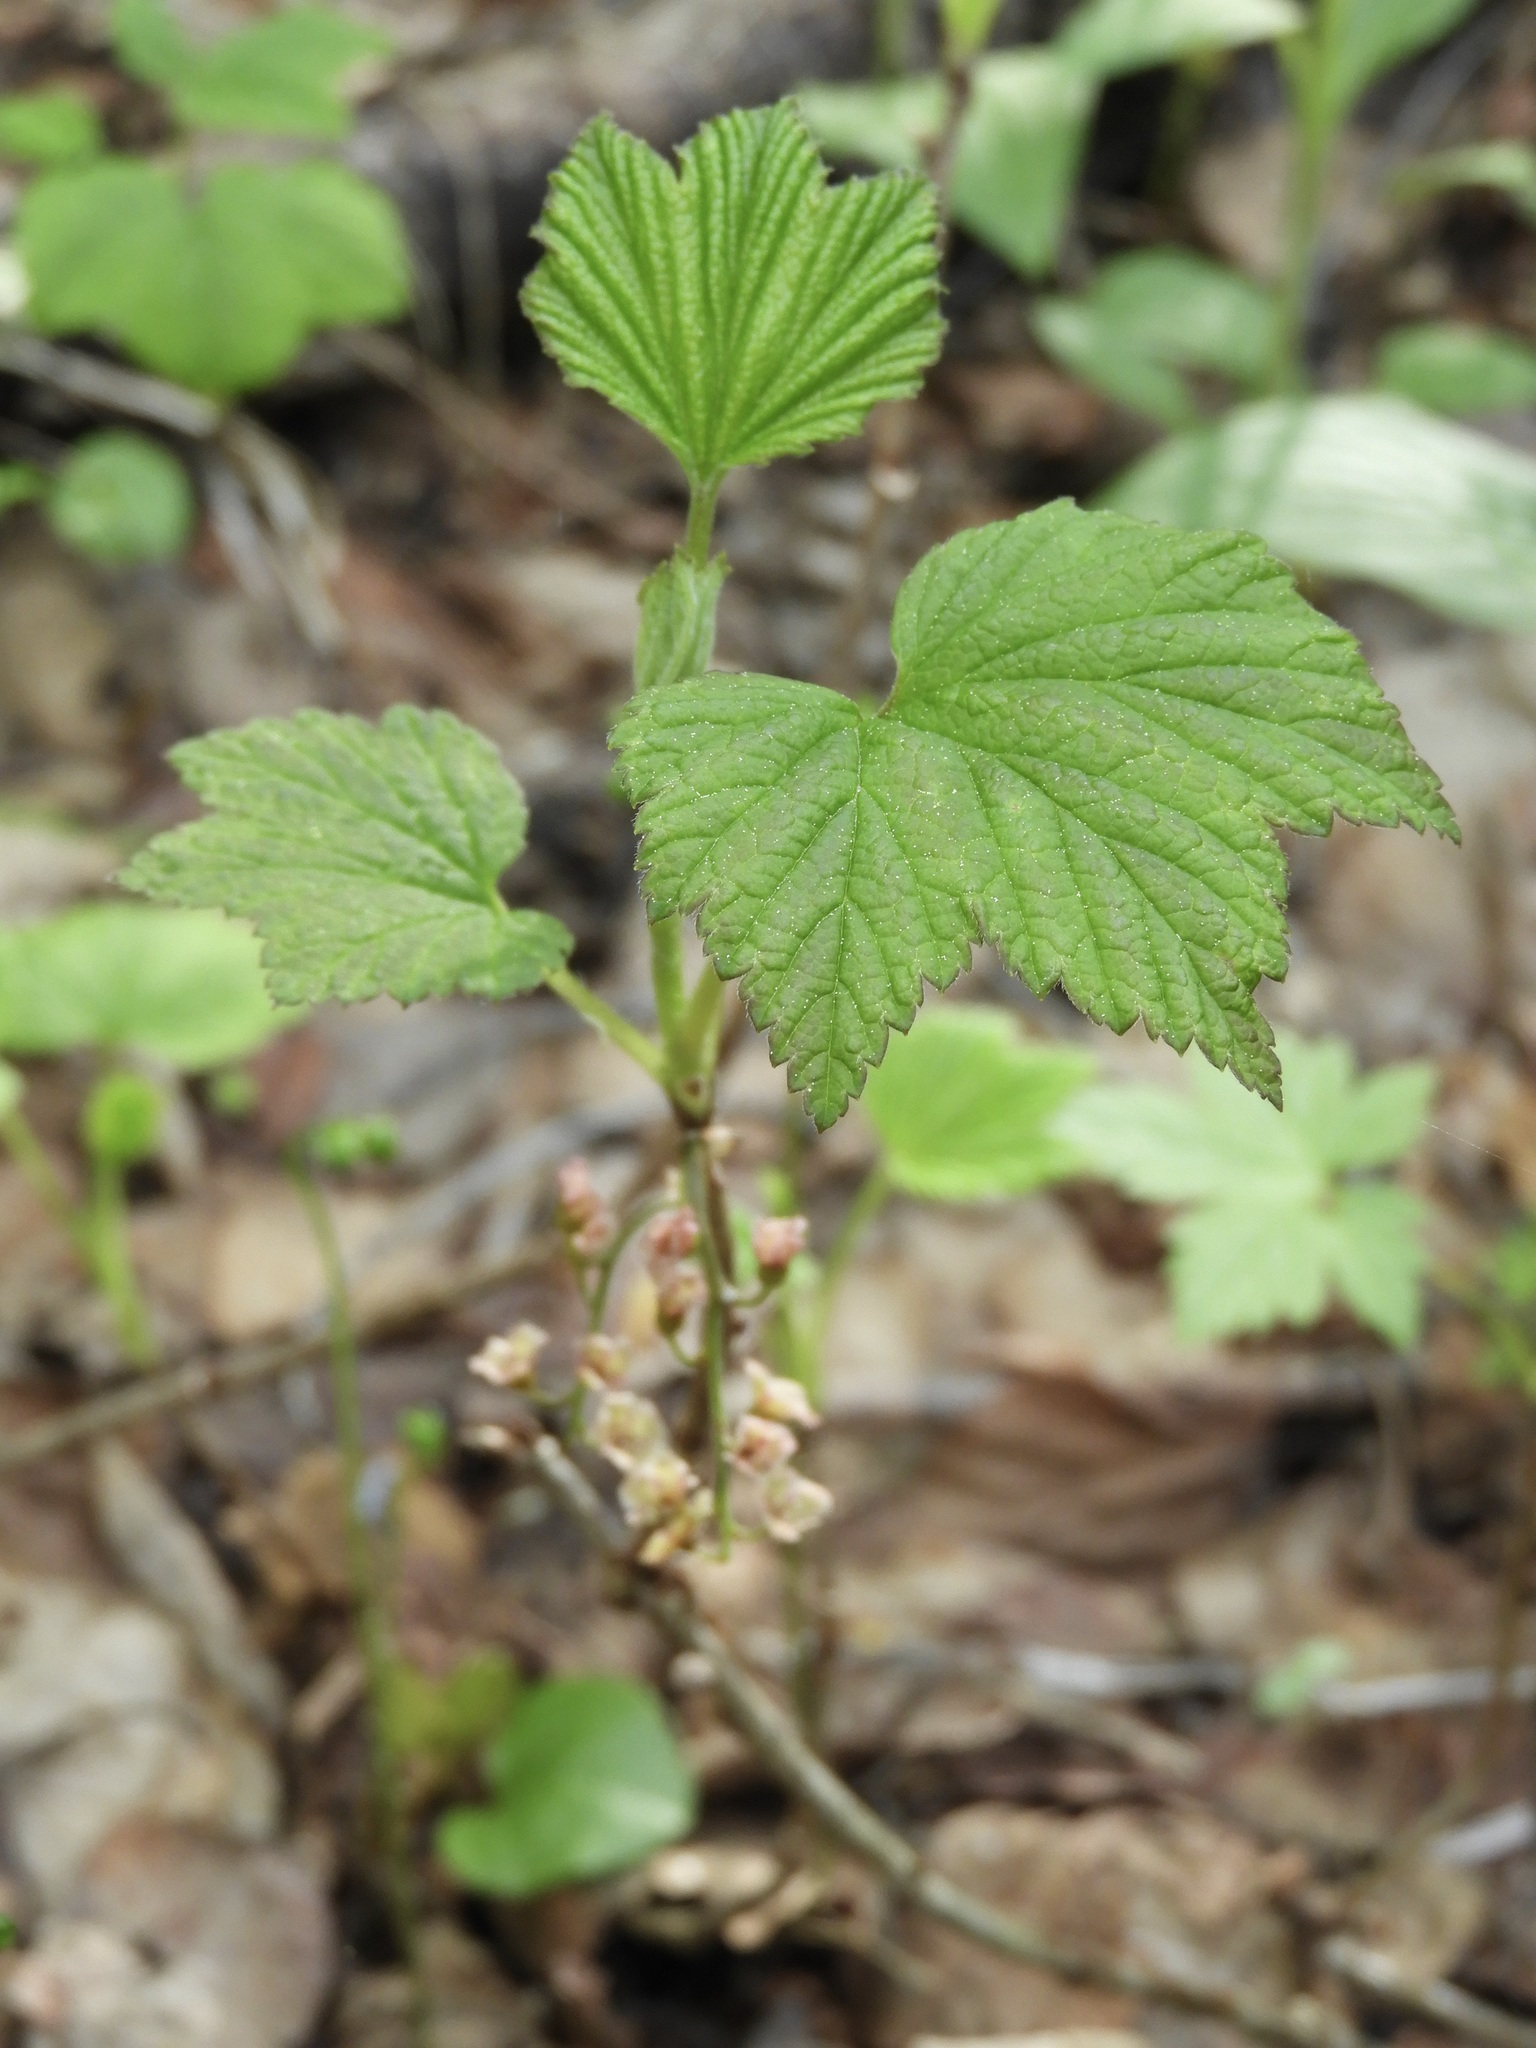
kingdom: Plantae
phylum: Tracheophyta
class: Magnoliopsida
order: Saxifragales
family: Grossulariaceae
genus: Ribes
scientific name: Ribes triste
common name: Swamp red currant
